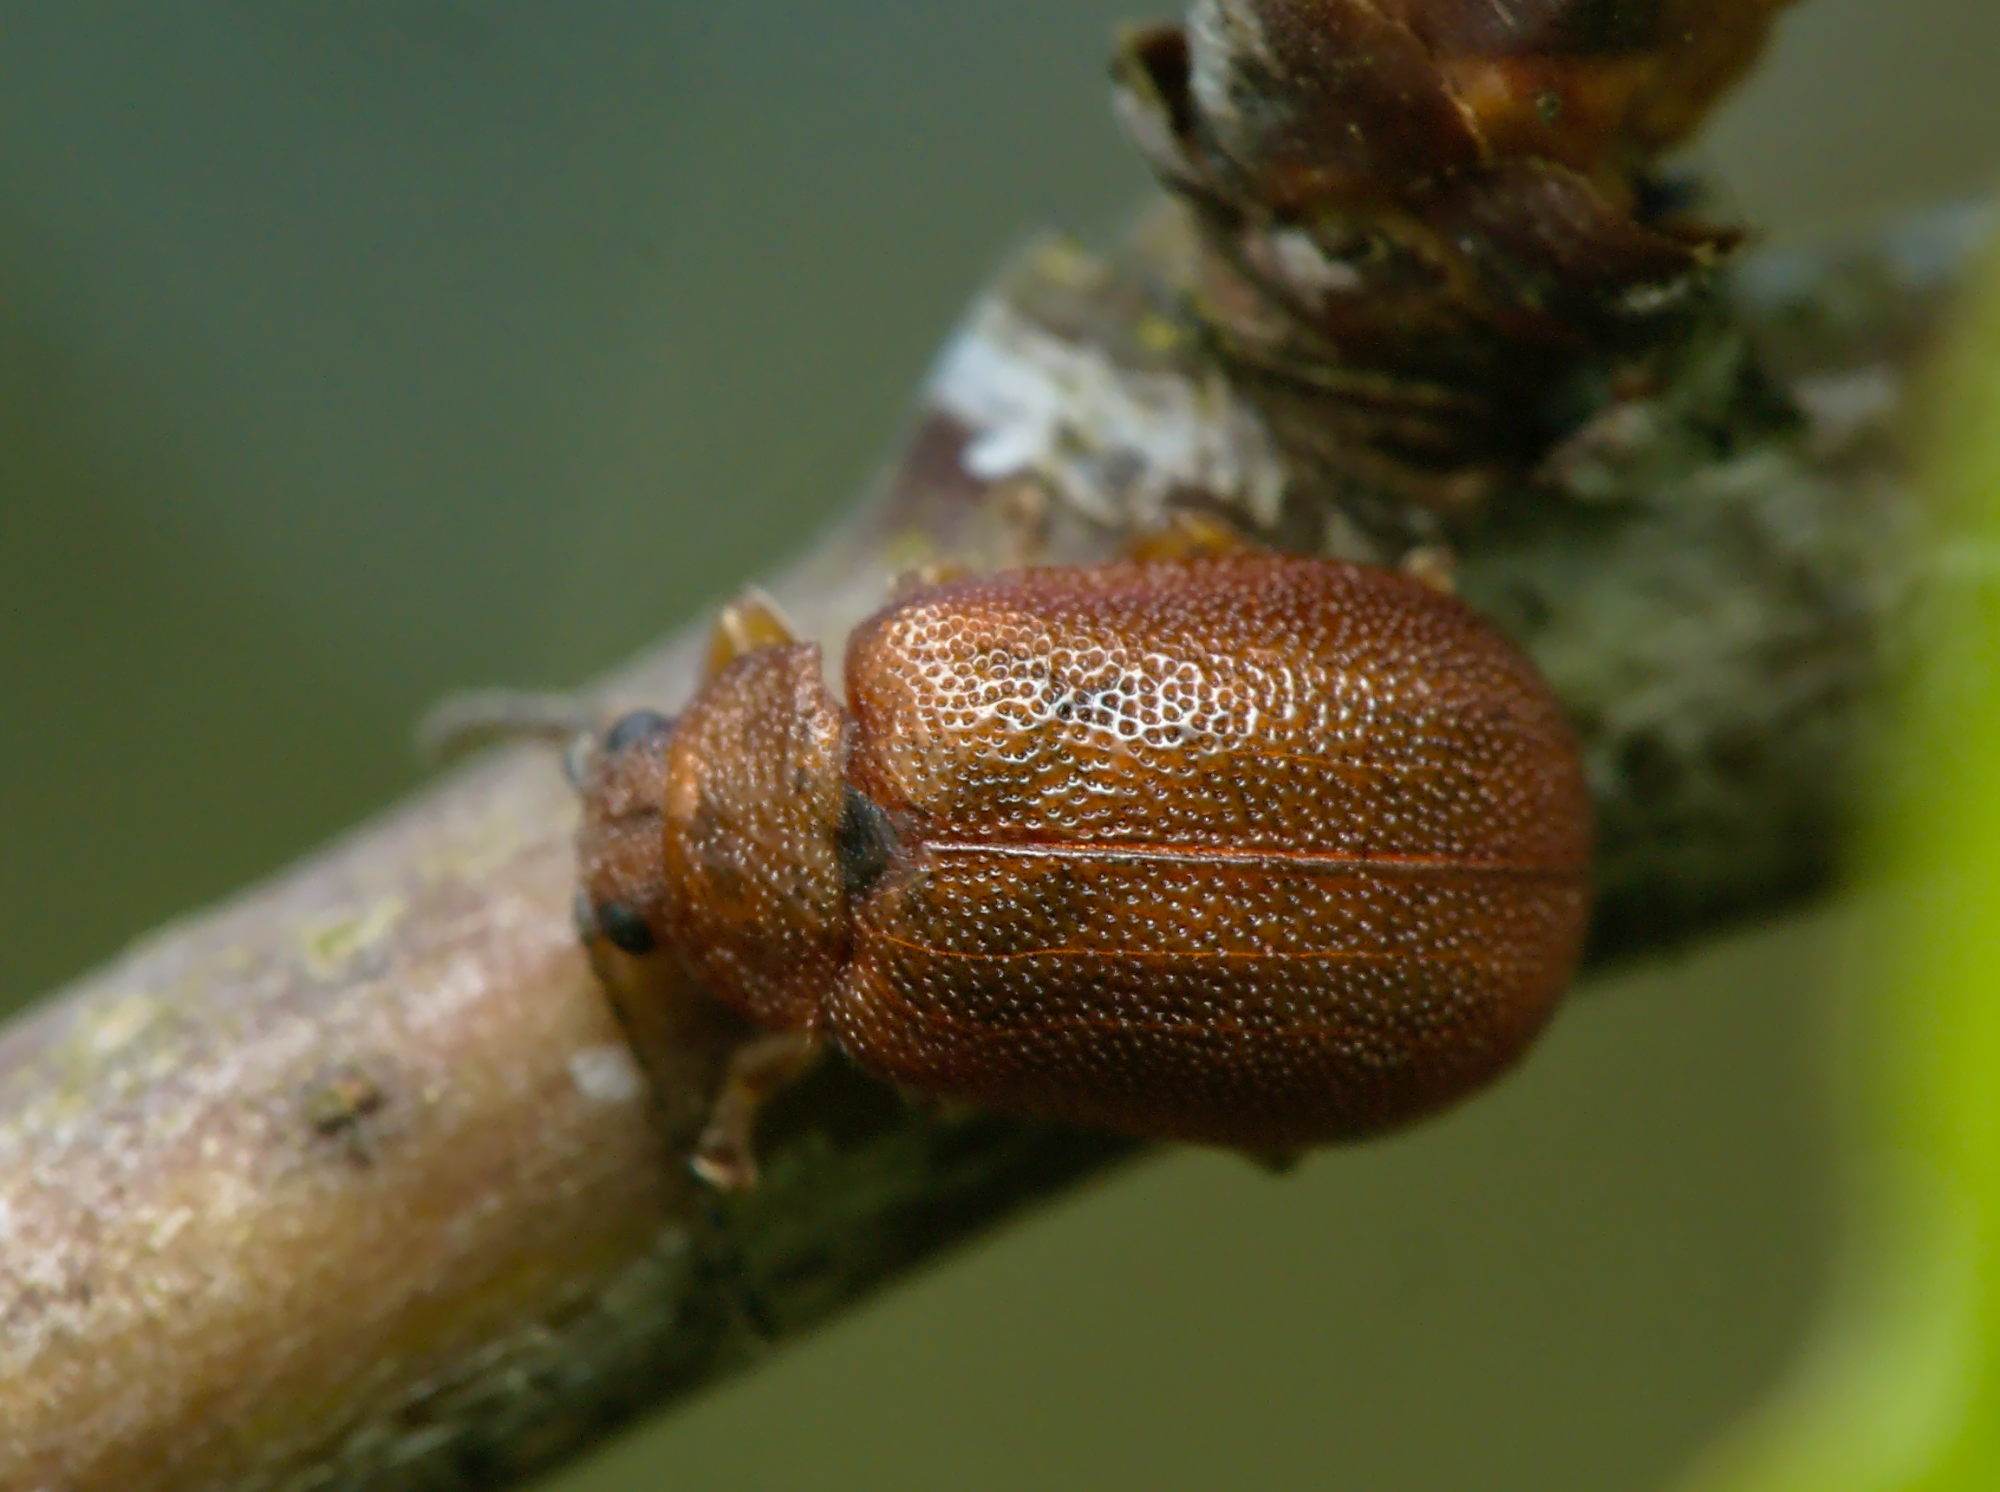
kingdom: Animalia
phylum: Arthropoda
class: Insecta
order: Coleoptera
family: Chrysomelidae
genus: Lochmaea
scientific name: Lochmaea crataegi
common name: Hawthorn leaf beetle
